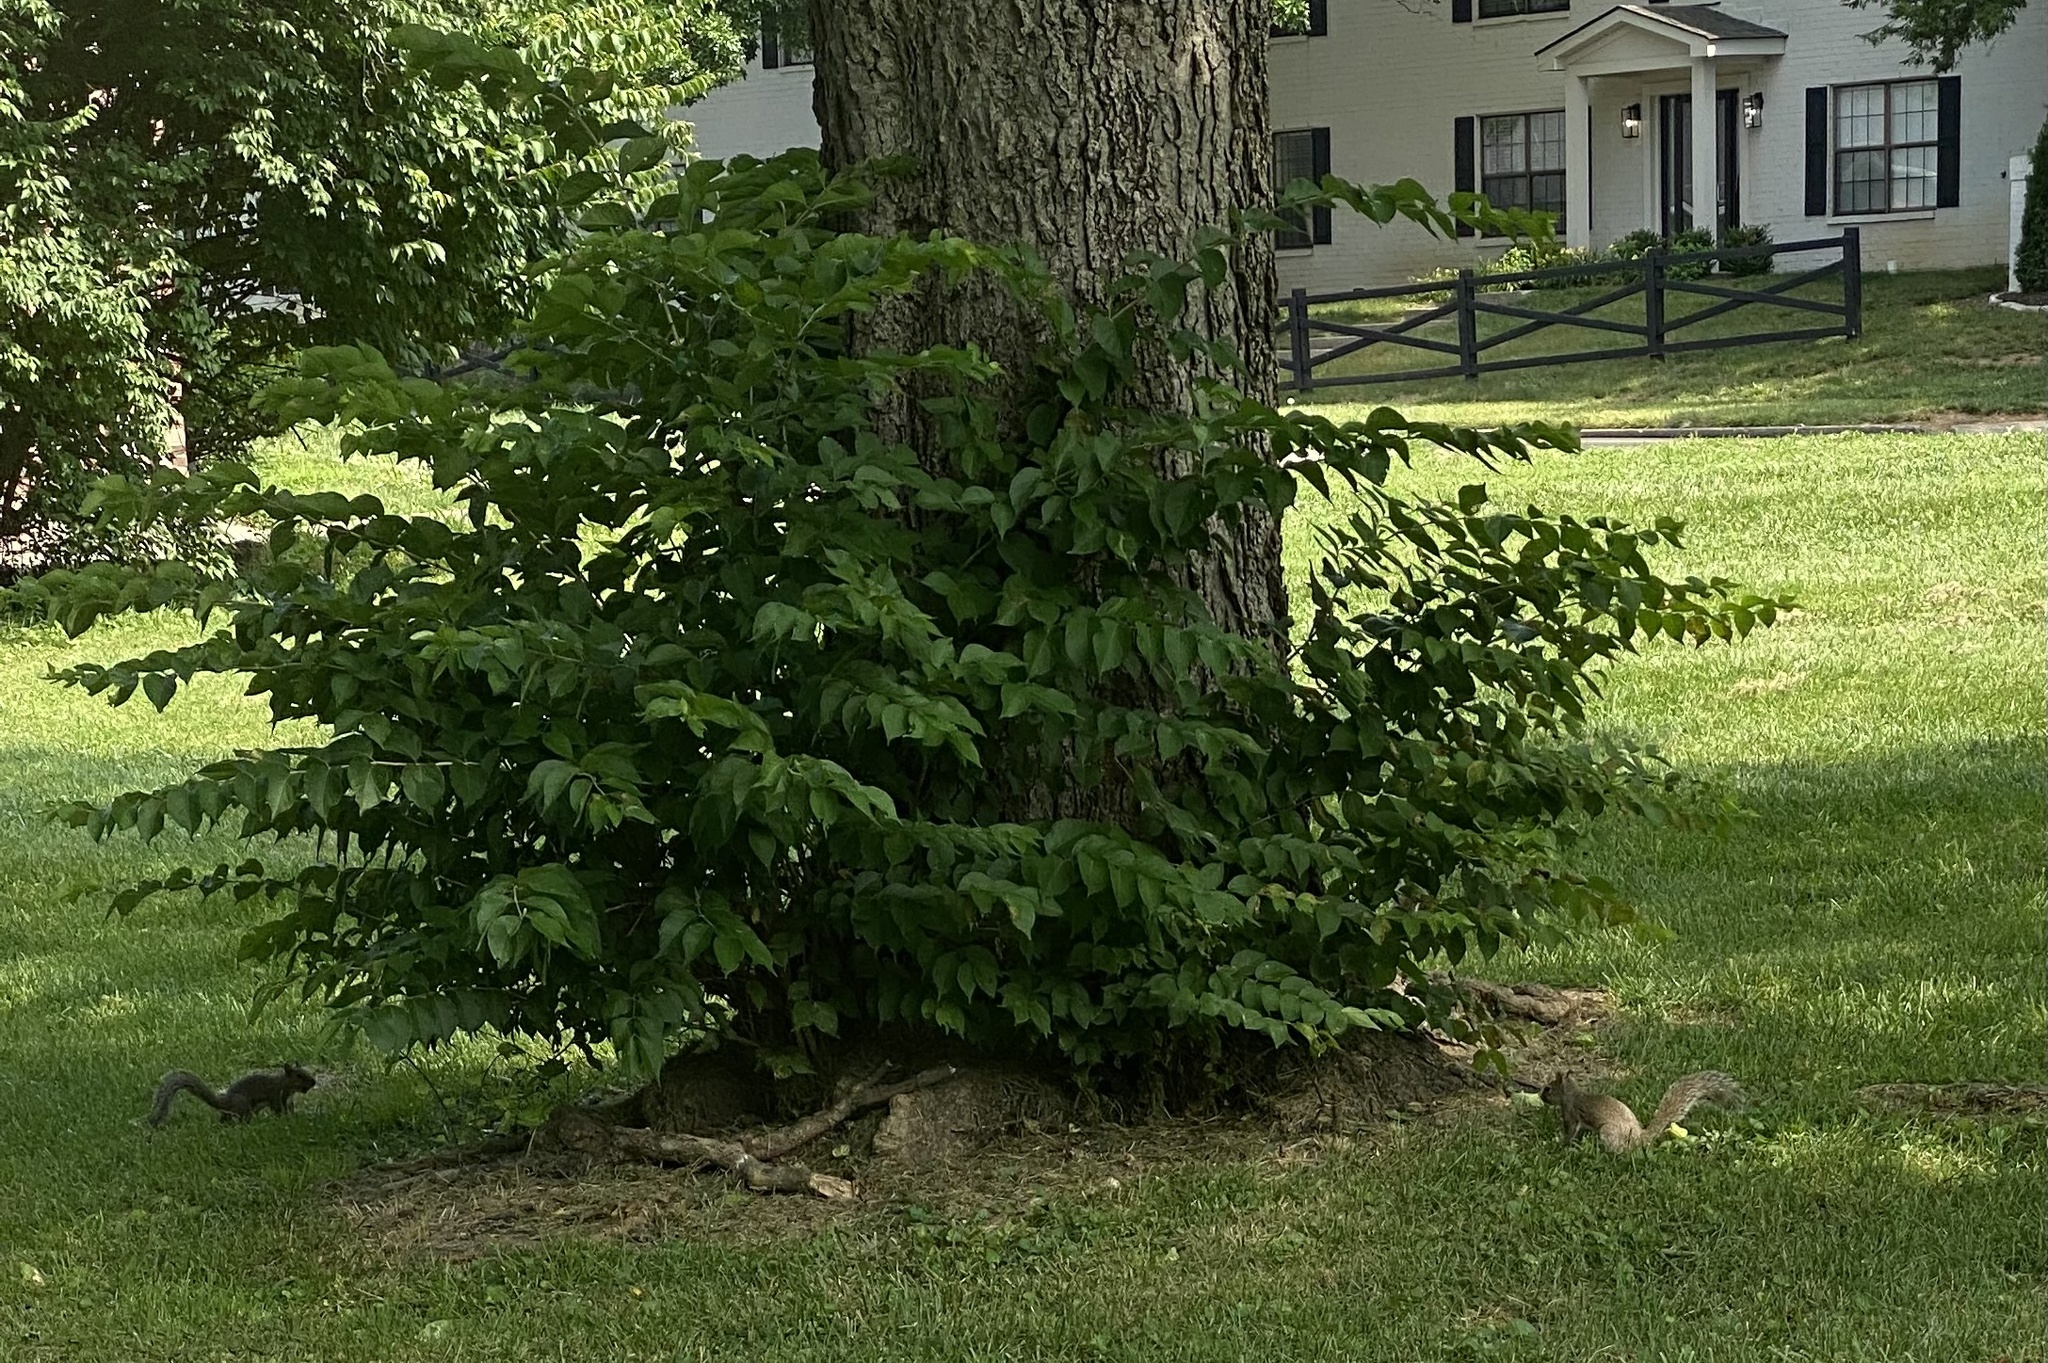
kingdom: Animalia
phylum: Chordata
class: Mammalia
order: Rodentia
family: Sciuridae
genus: Sciurus
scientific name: Sciurus carolinensis
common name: Eastern gray squirrel
